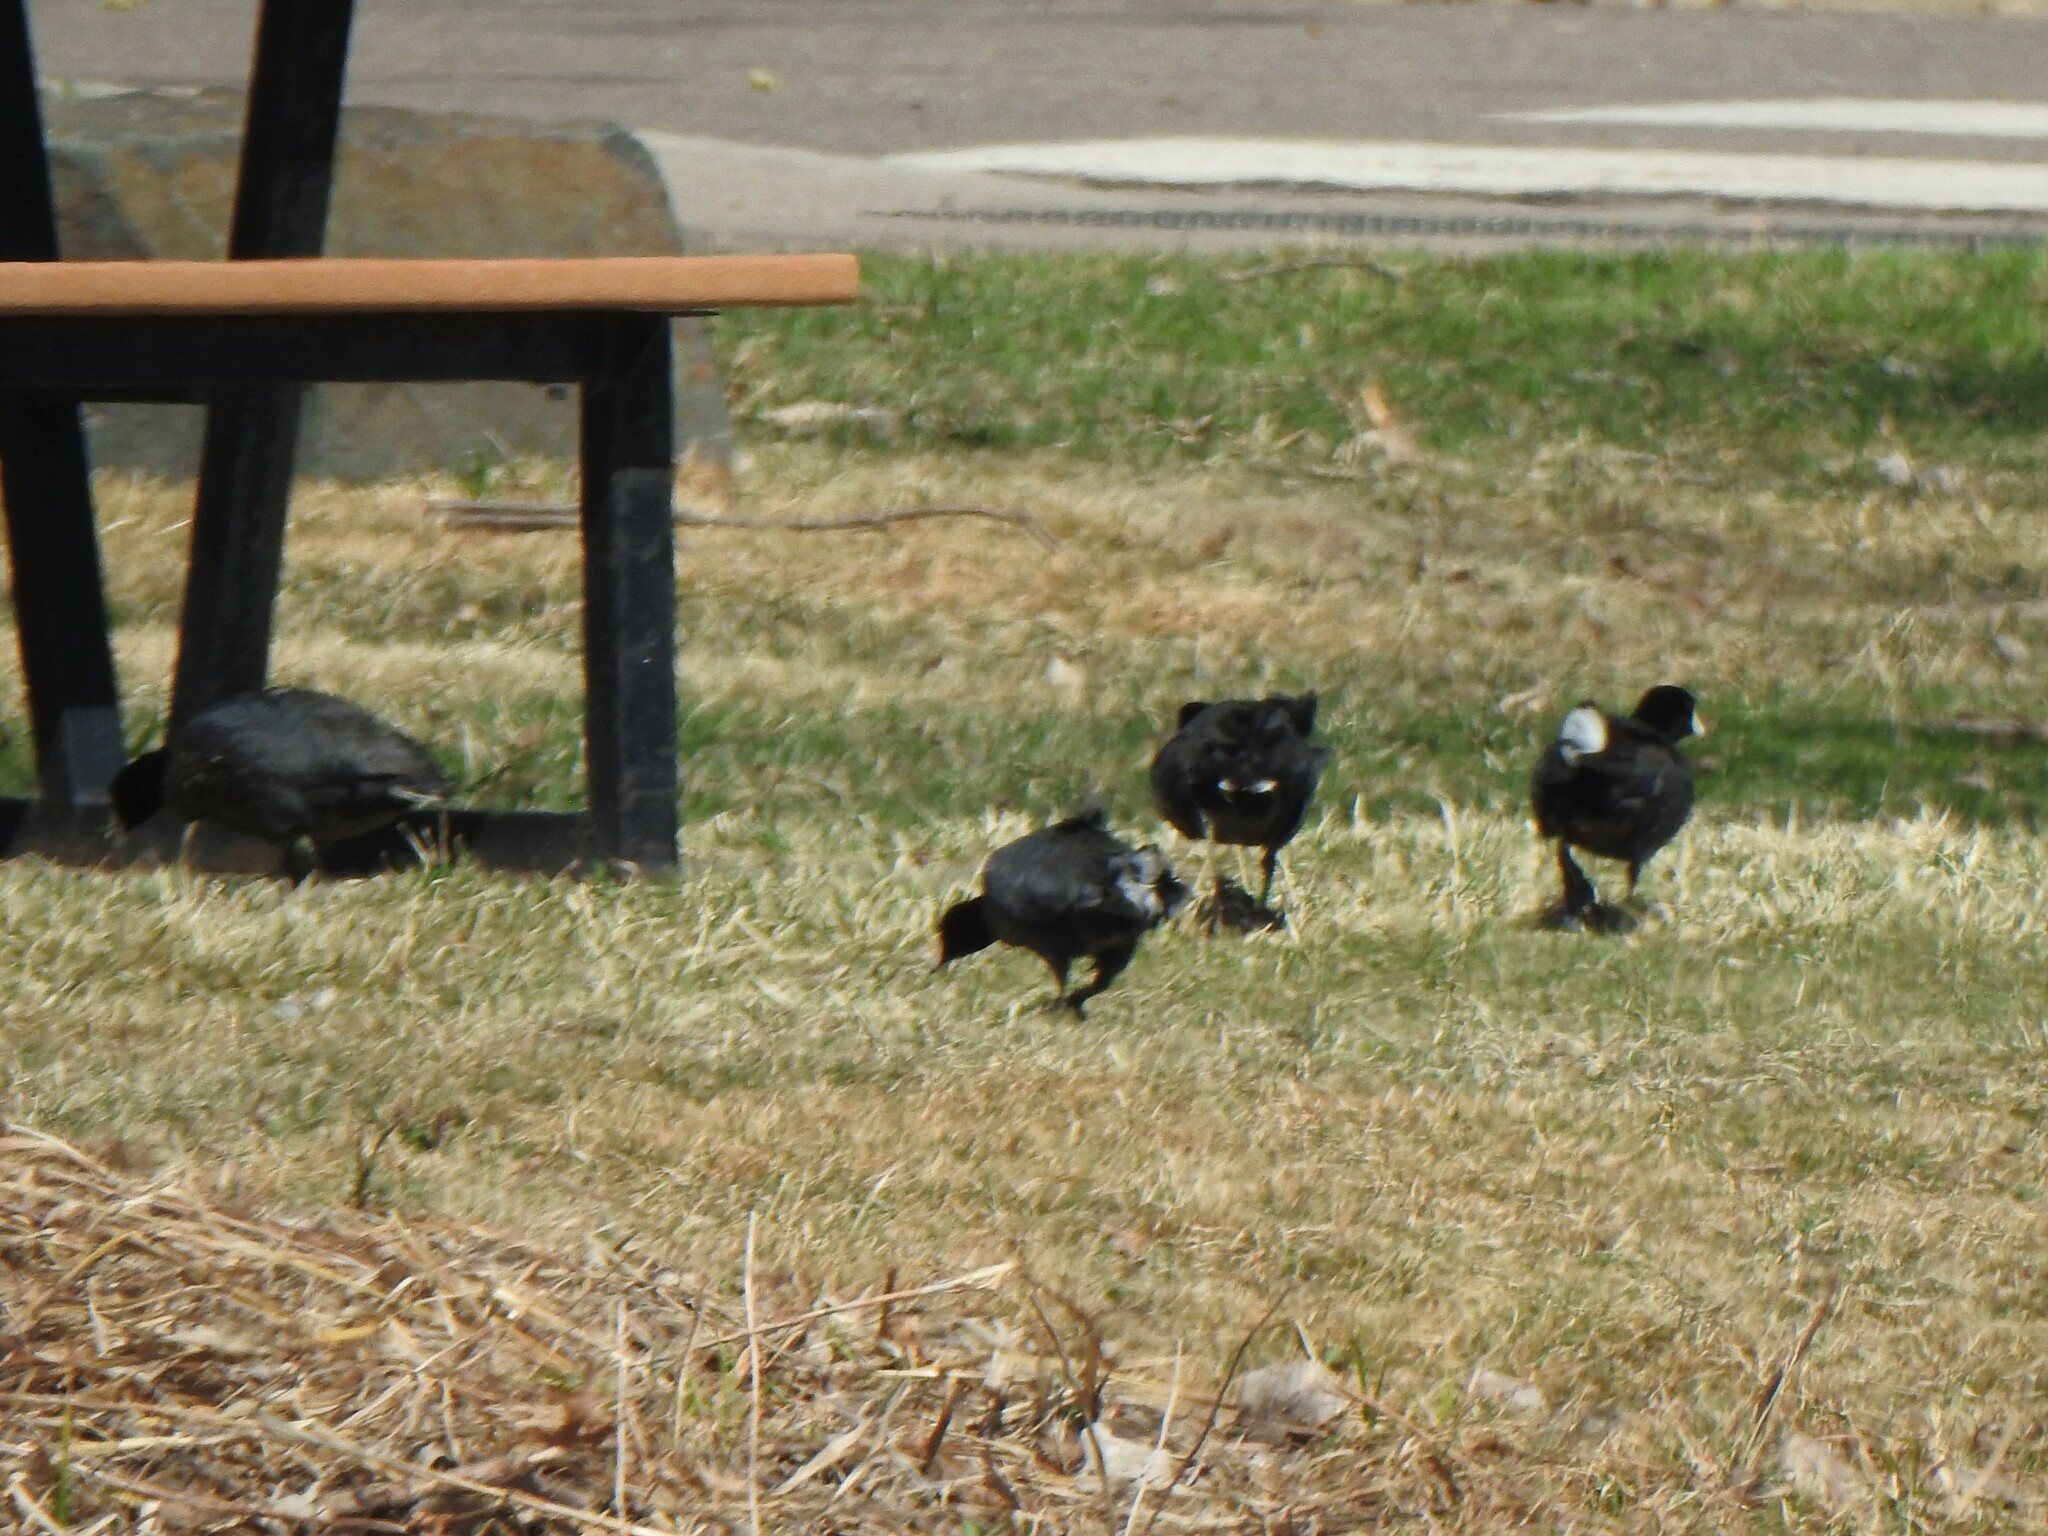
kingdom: Animalia
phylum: Chordata
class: Aves
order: Gruiformes
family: Rallidae
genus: Fulica
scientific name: Fulica americana
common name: American coot
